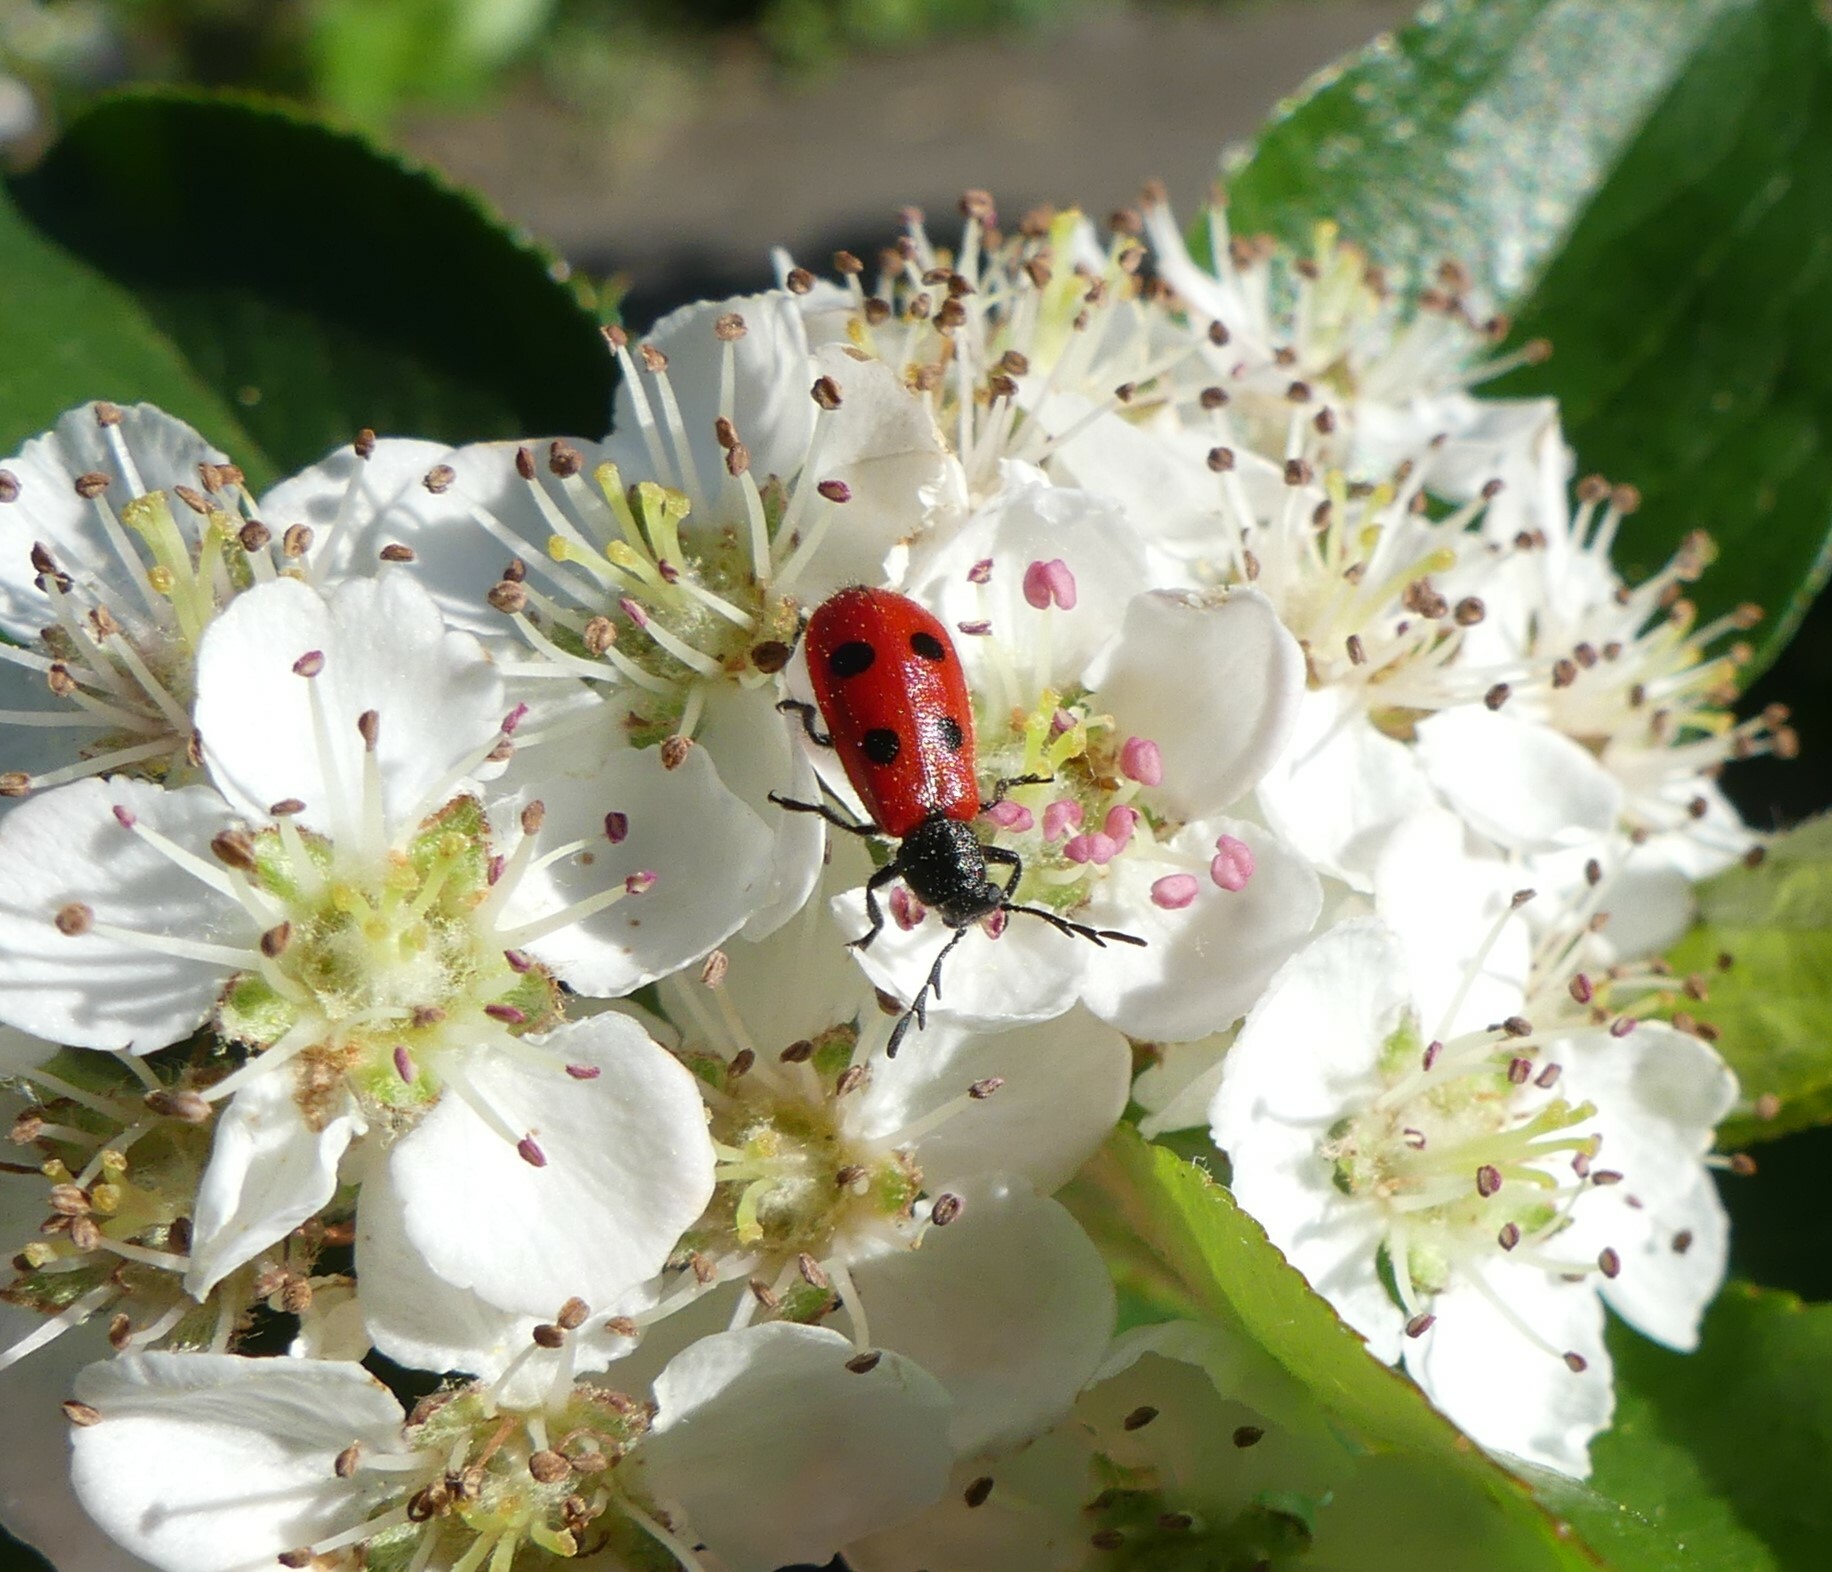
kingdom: Animalia
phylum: Arthropoda
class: Insecta
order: Coleoptera
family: Cleridae
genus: Pelonides
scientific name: Pelonides quadripunctatus
